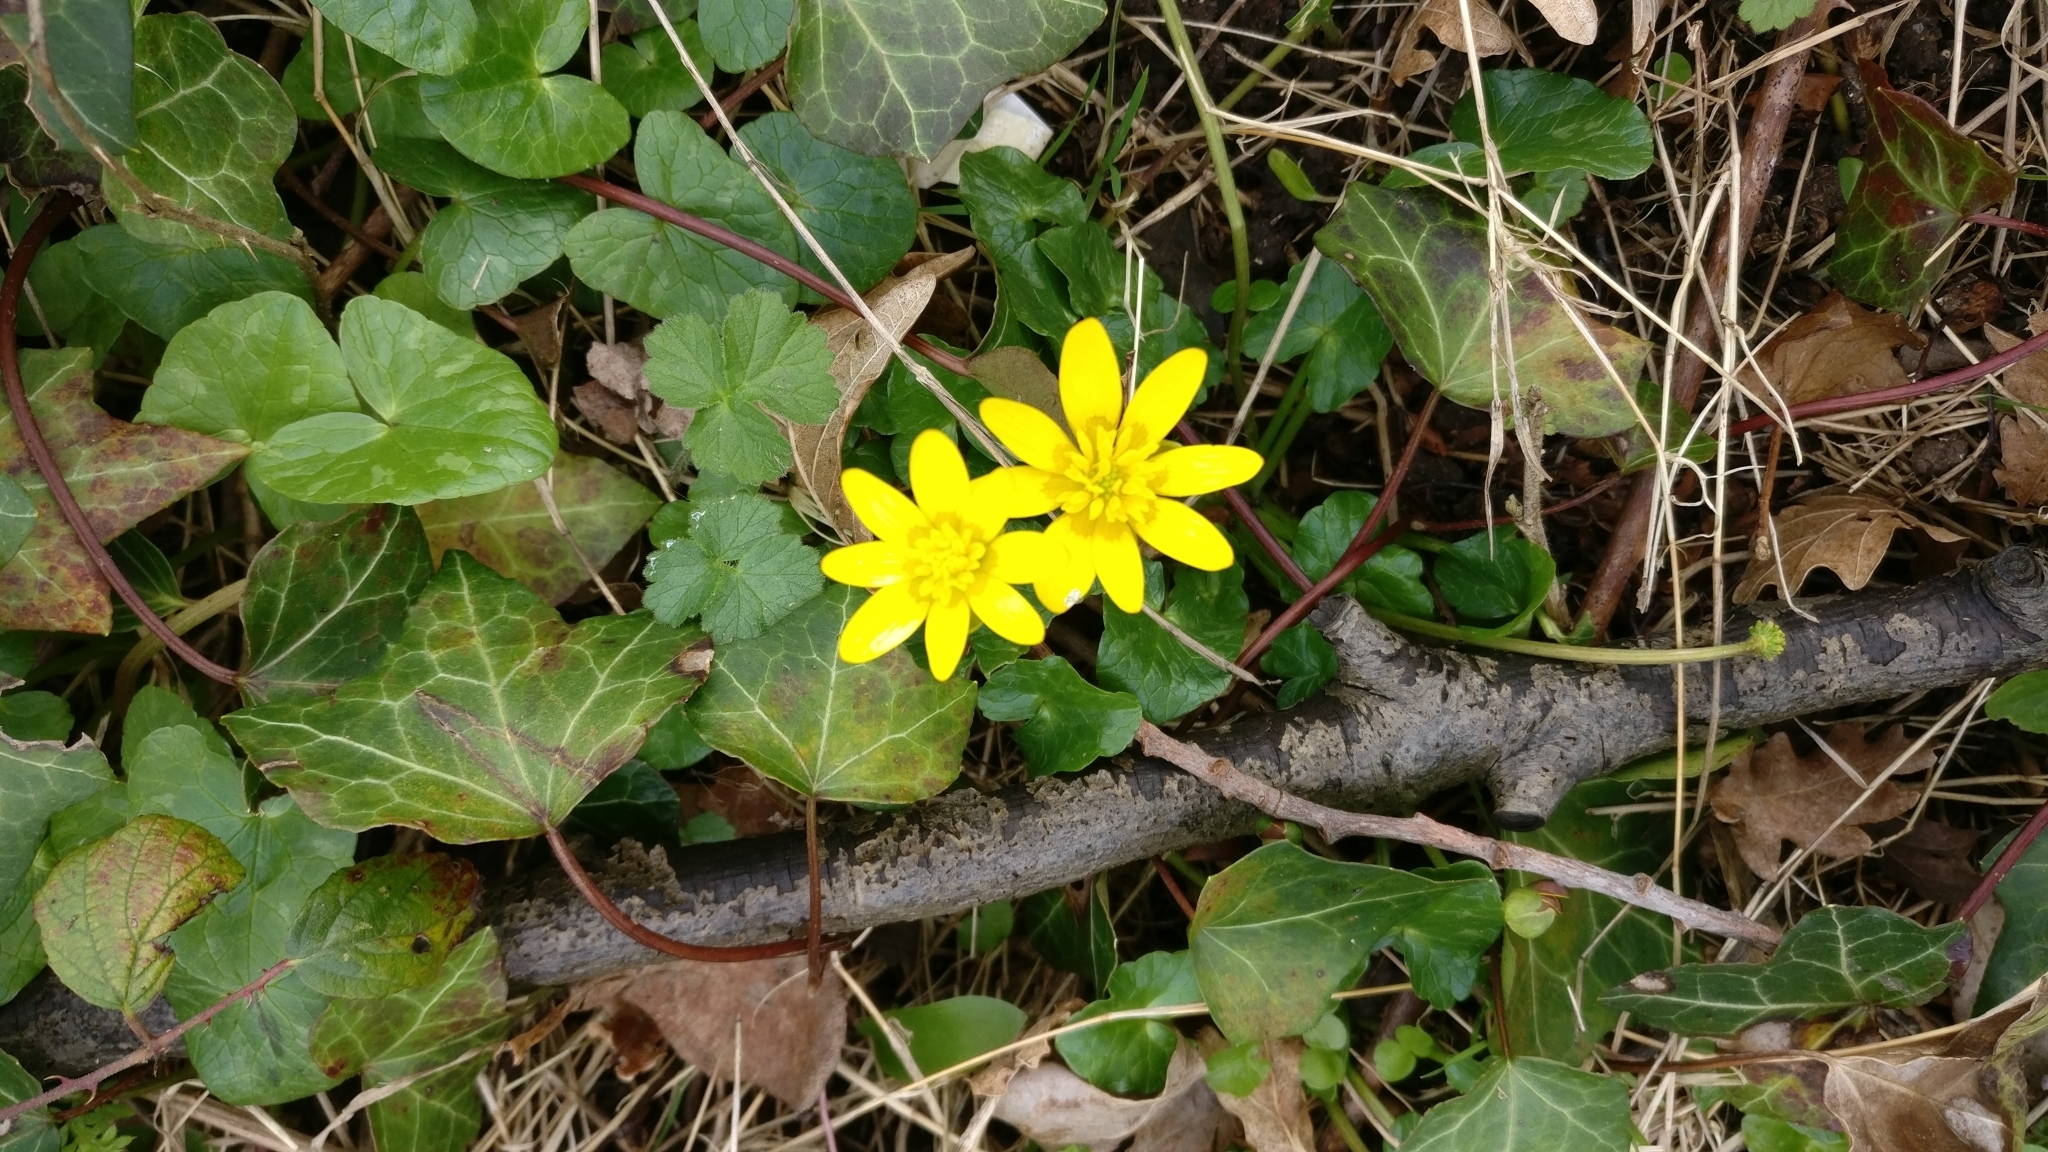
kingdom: Plantae
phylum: Tracheophyta
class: Magnoliopsida
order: Ranunculales
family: Ranunculaceae
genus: Ficaria
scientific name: Ficaria verna
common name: Lesser celandine
